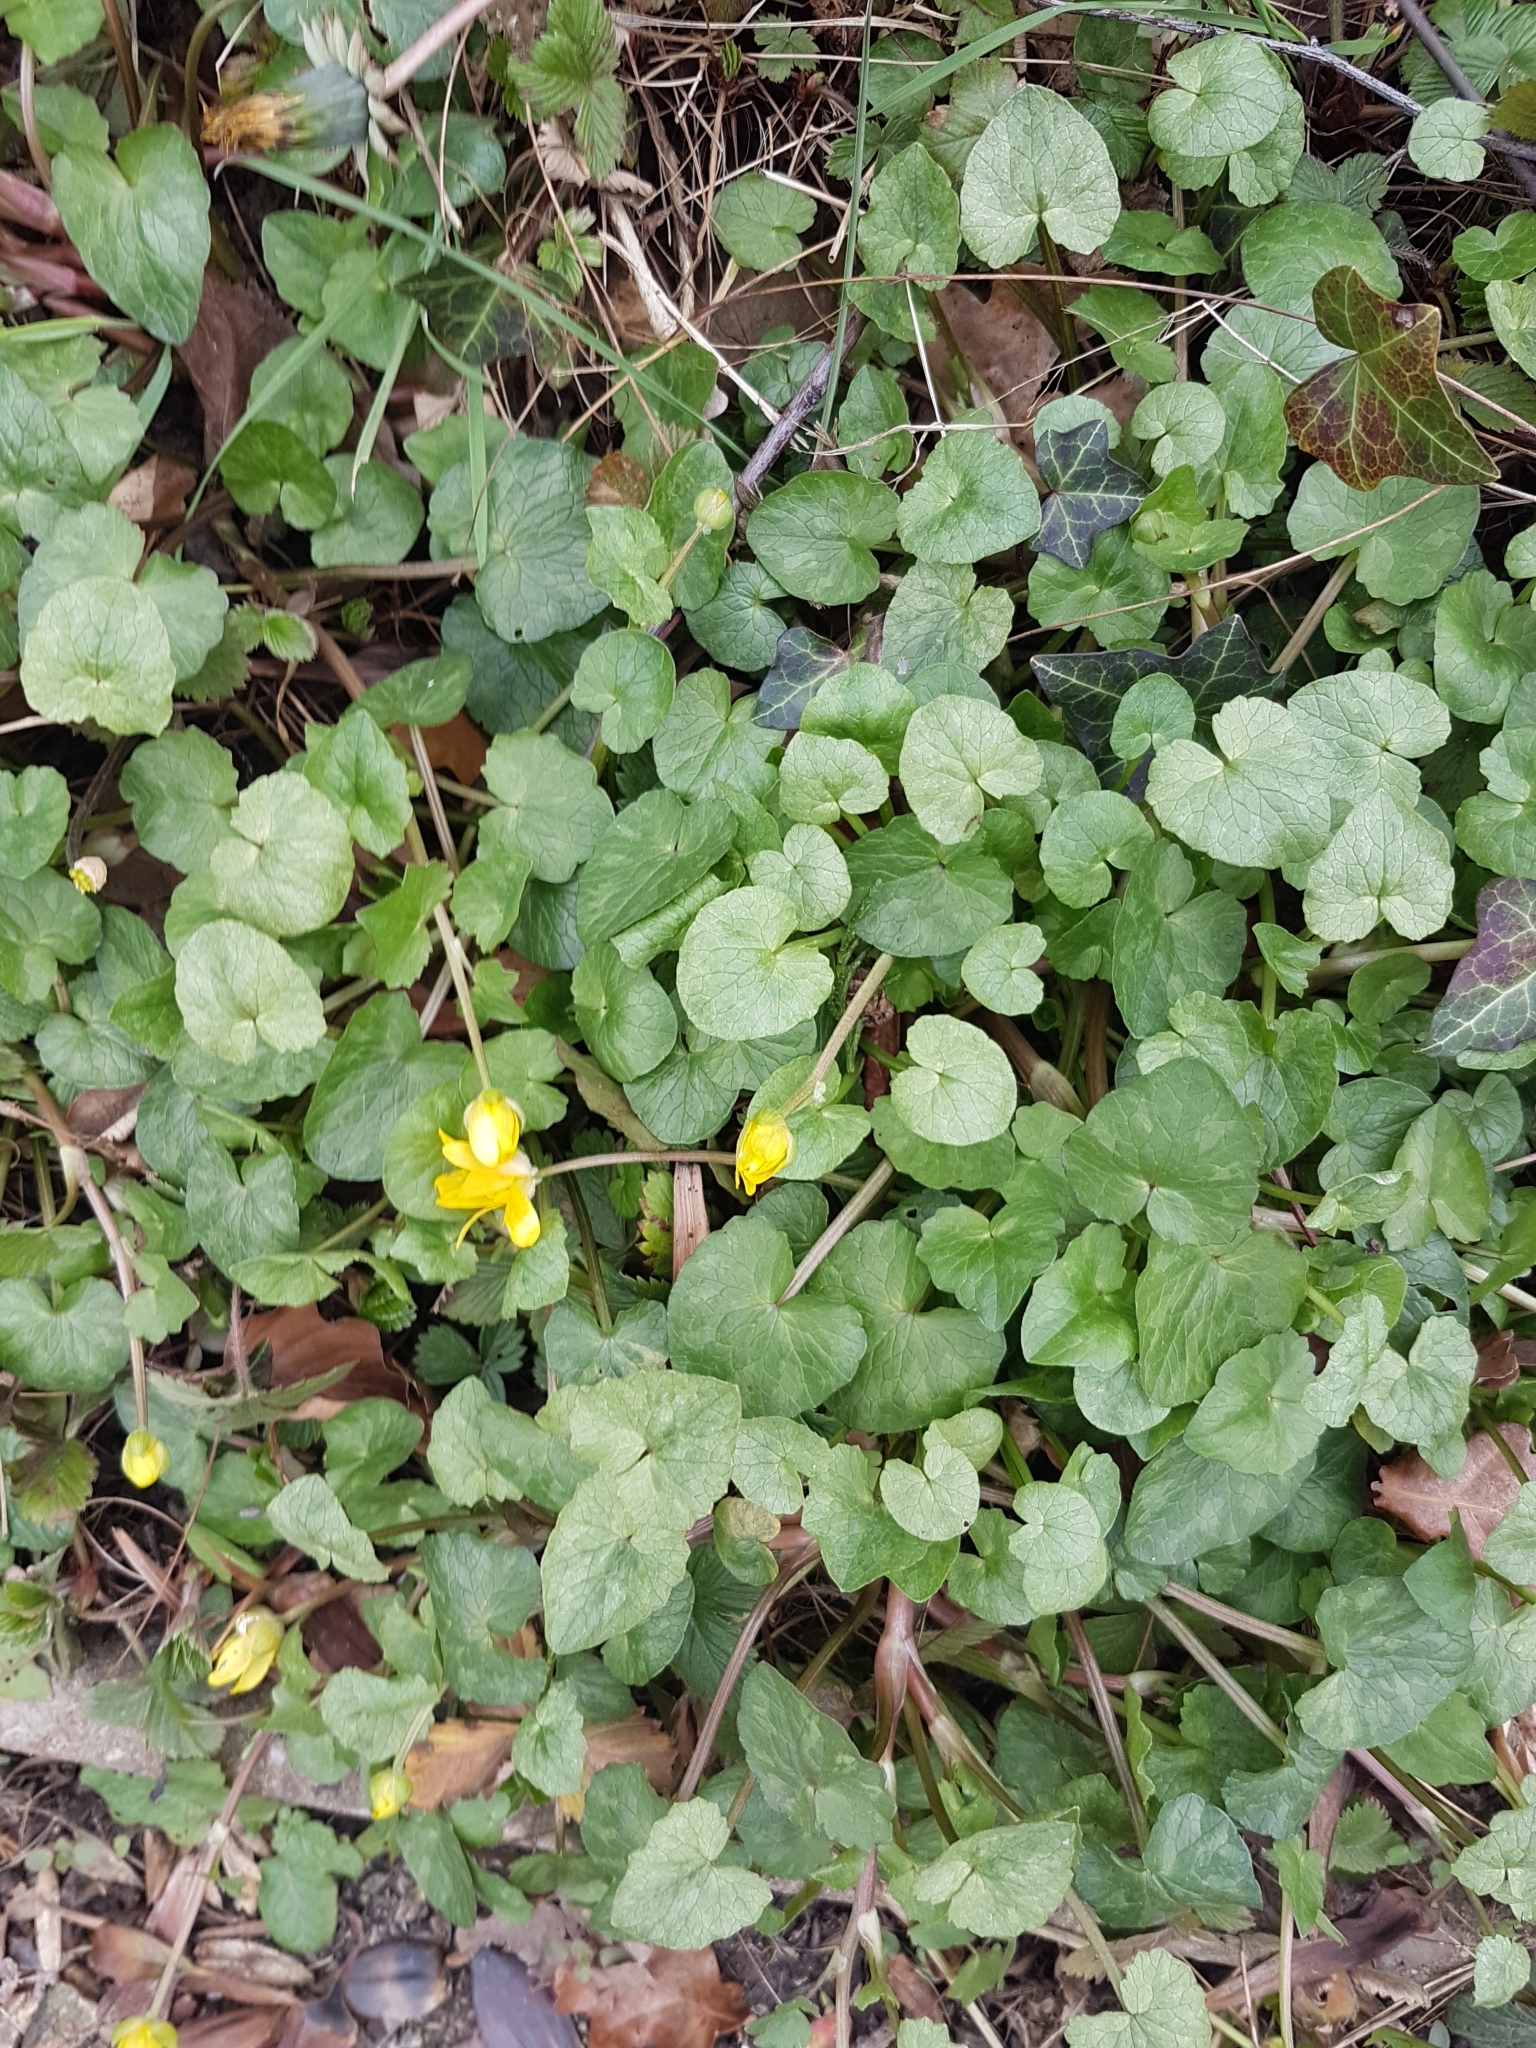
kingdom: Plantae
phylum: Tracheophyta
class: Magnoliopsida
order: Ranunculales
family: Ranunculaceae
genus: Ficaria
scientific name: Ficaria verna
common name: Lesser celandine
